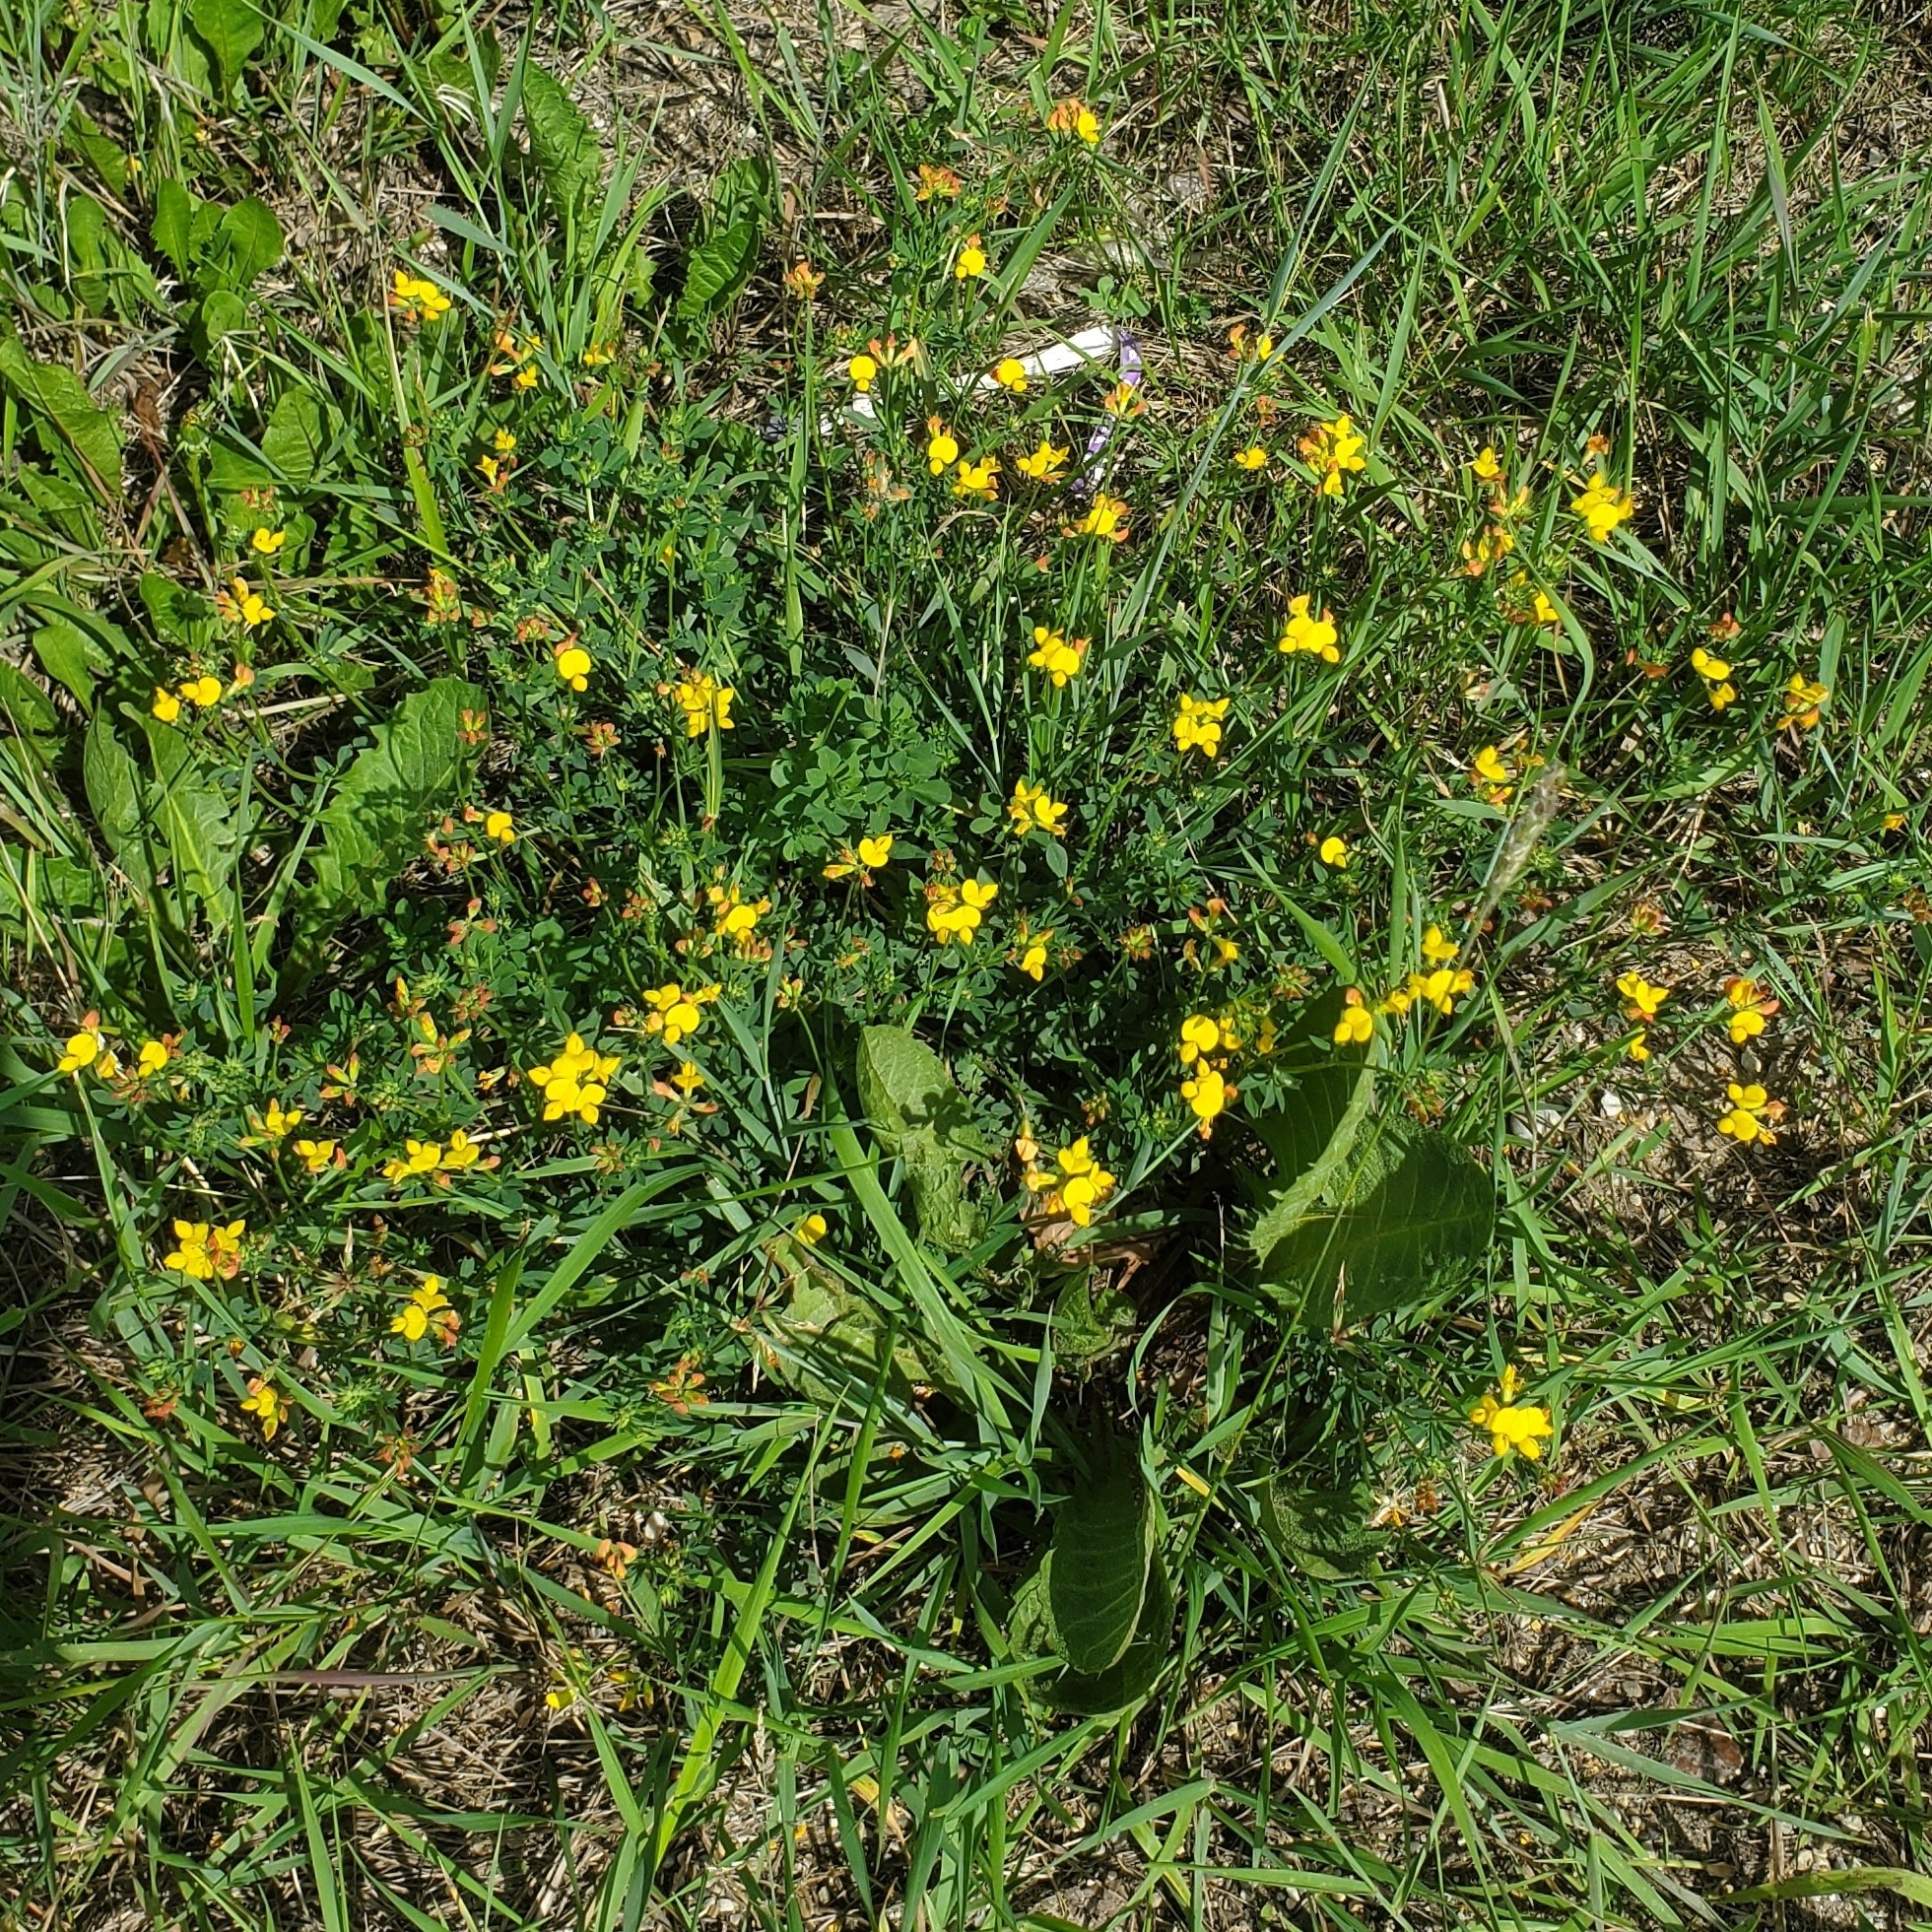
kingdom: Plantae
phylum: Tracheophyta
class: Magnoliopsida
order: Fabales
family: Fabaceae
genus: Lotus
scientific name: Lotus corniculatus
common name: Common bird's-foot-trefoil
